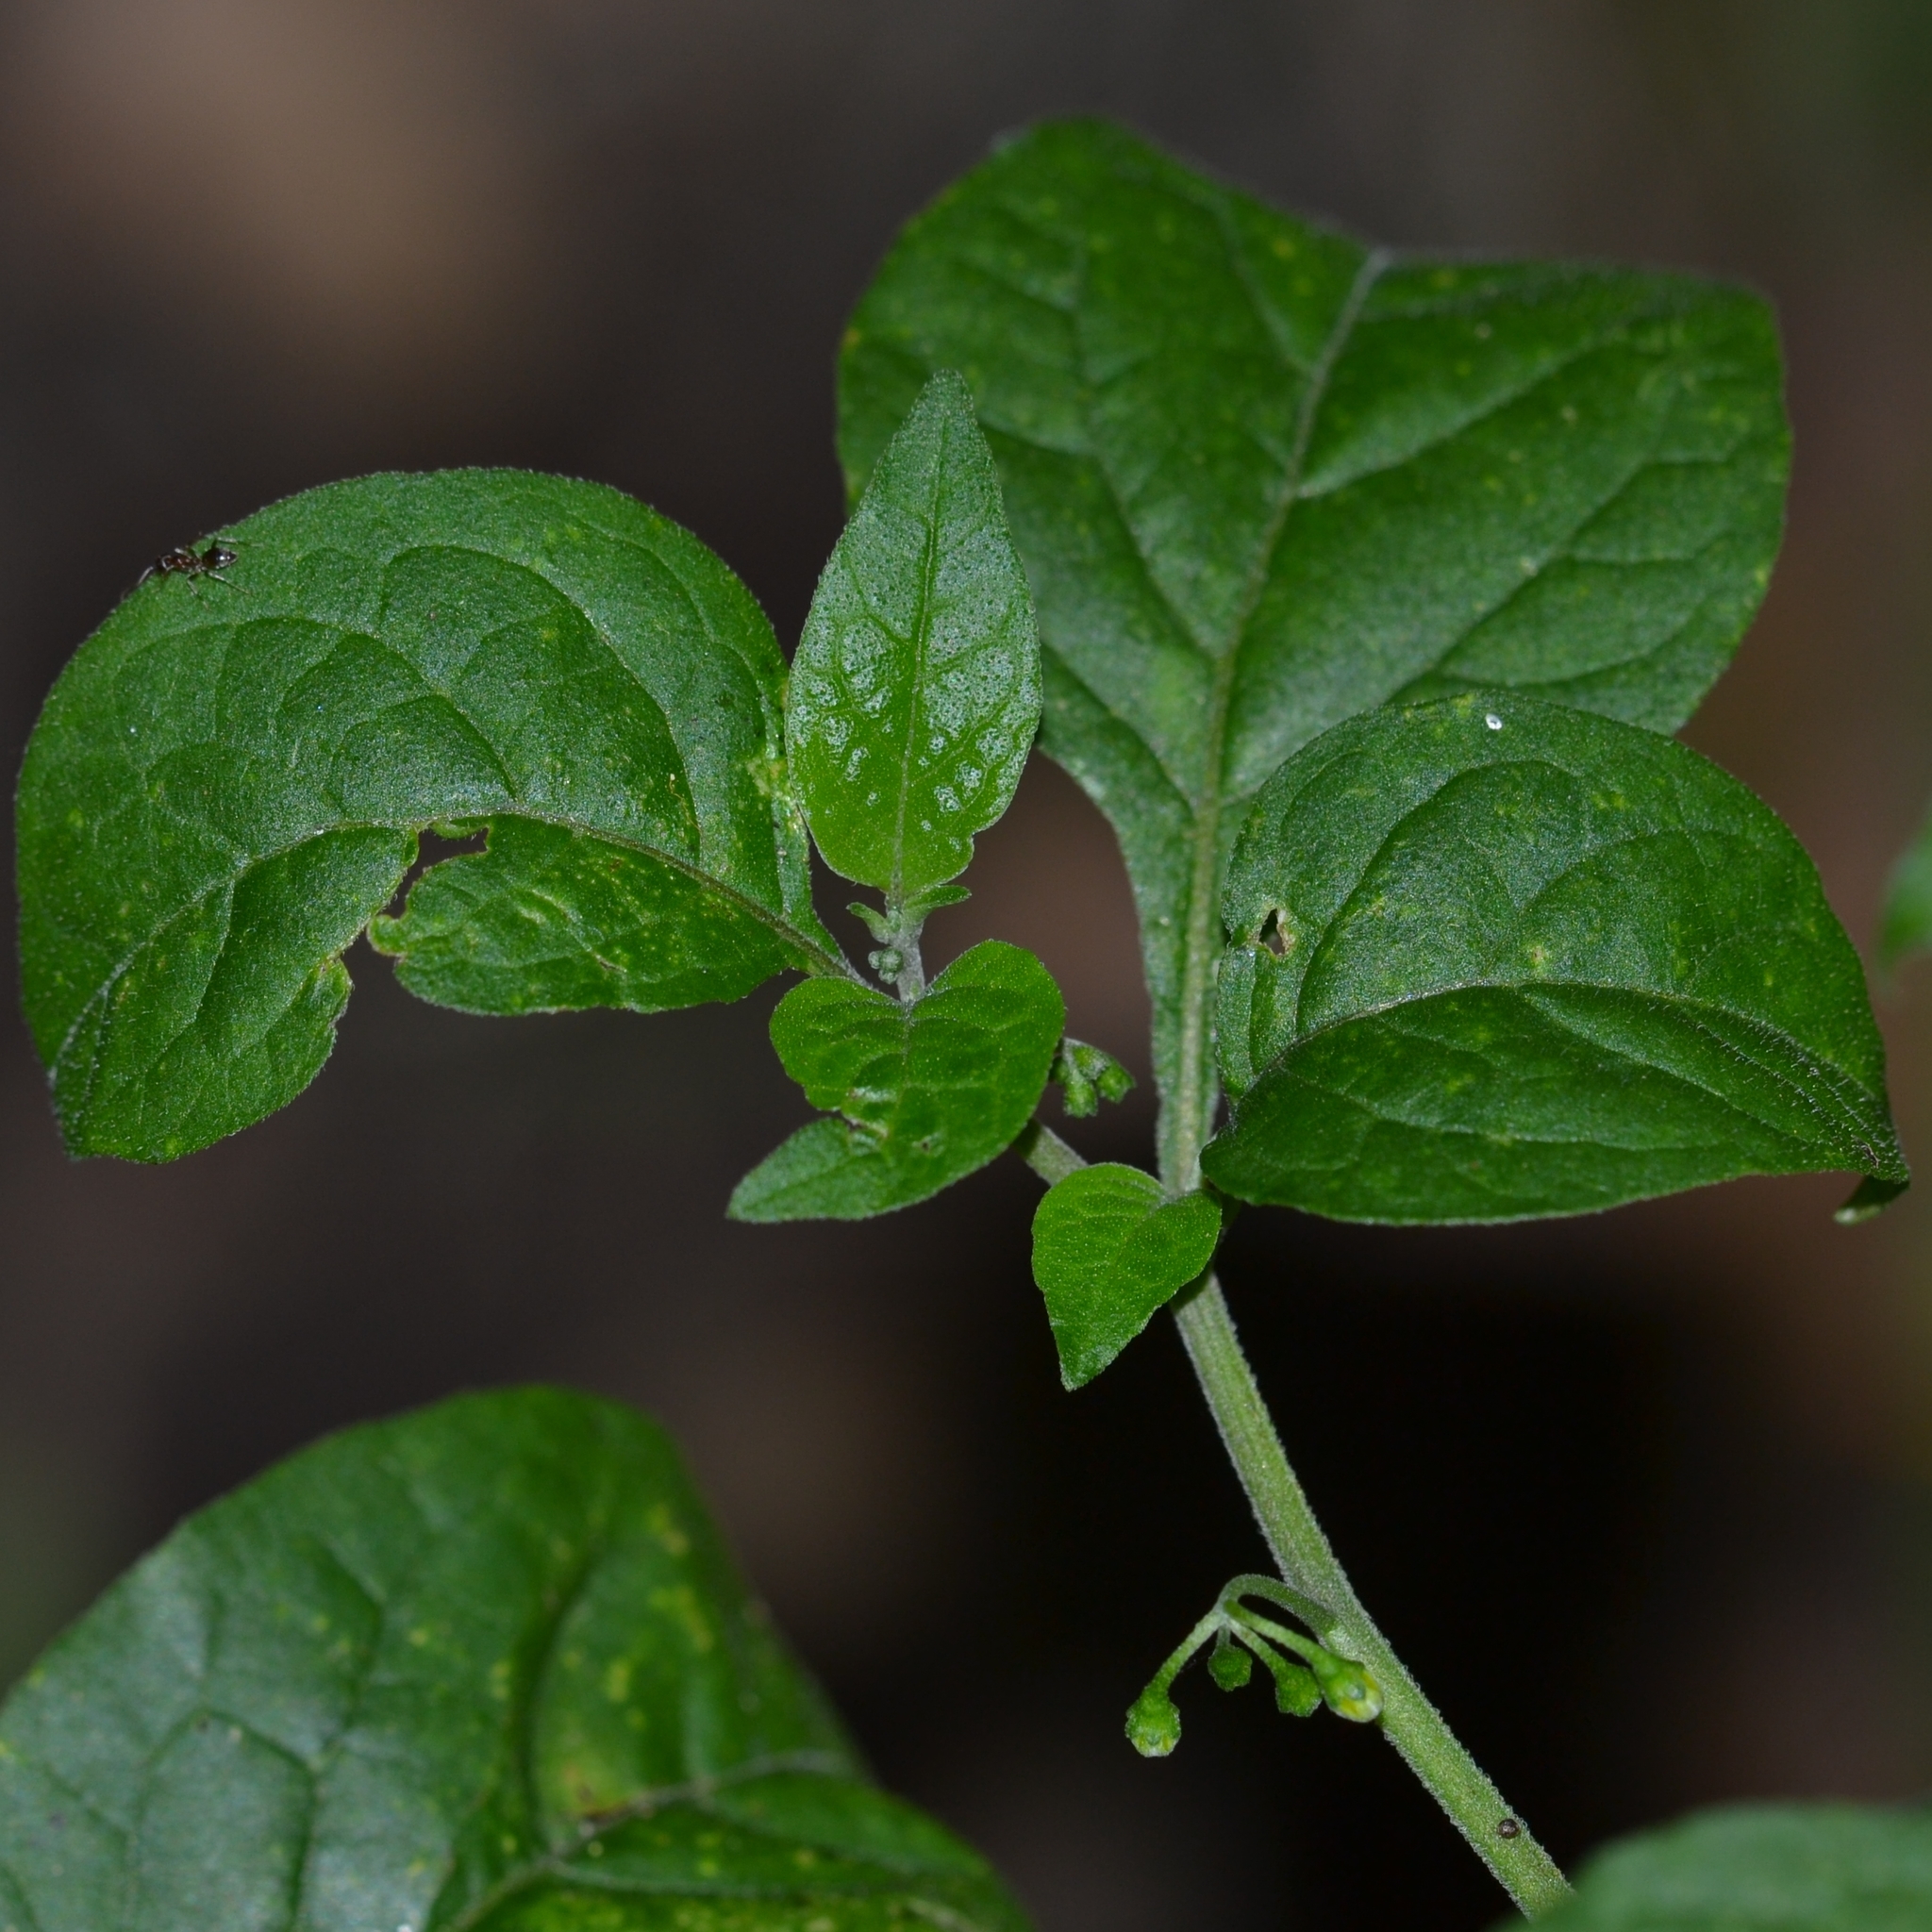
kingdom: Plantae
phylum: Tracheophyta
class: Magnoliopsida
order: Solanales
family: Solanaceae
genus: Solanum
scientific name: Solanum americanum
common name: American black nightshade
